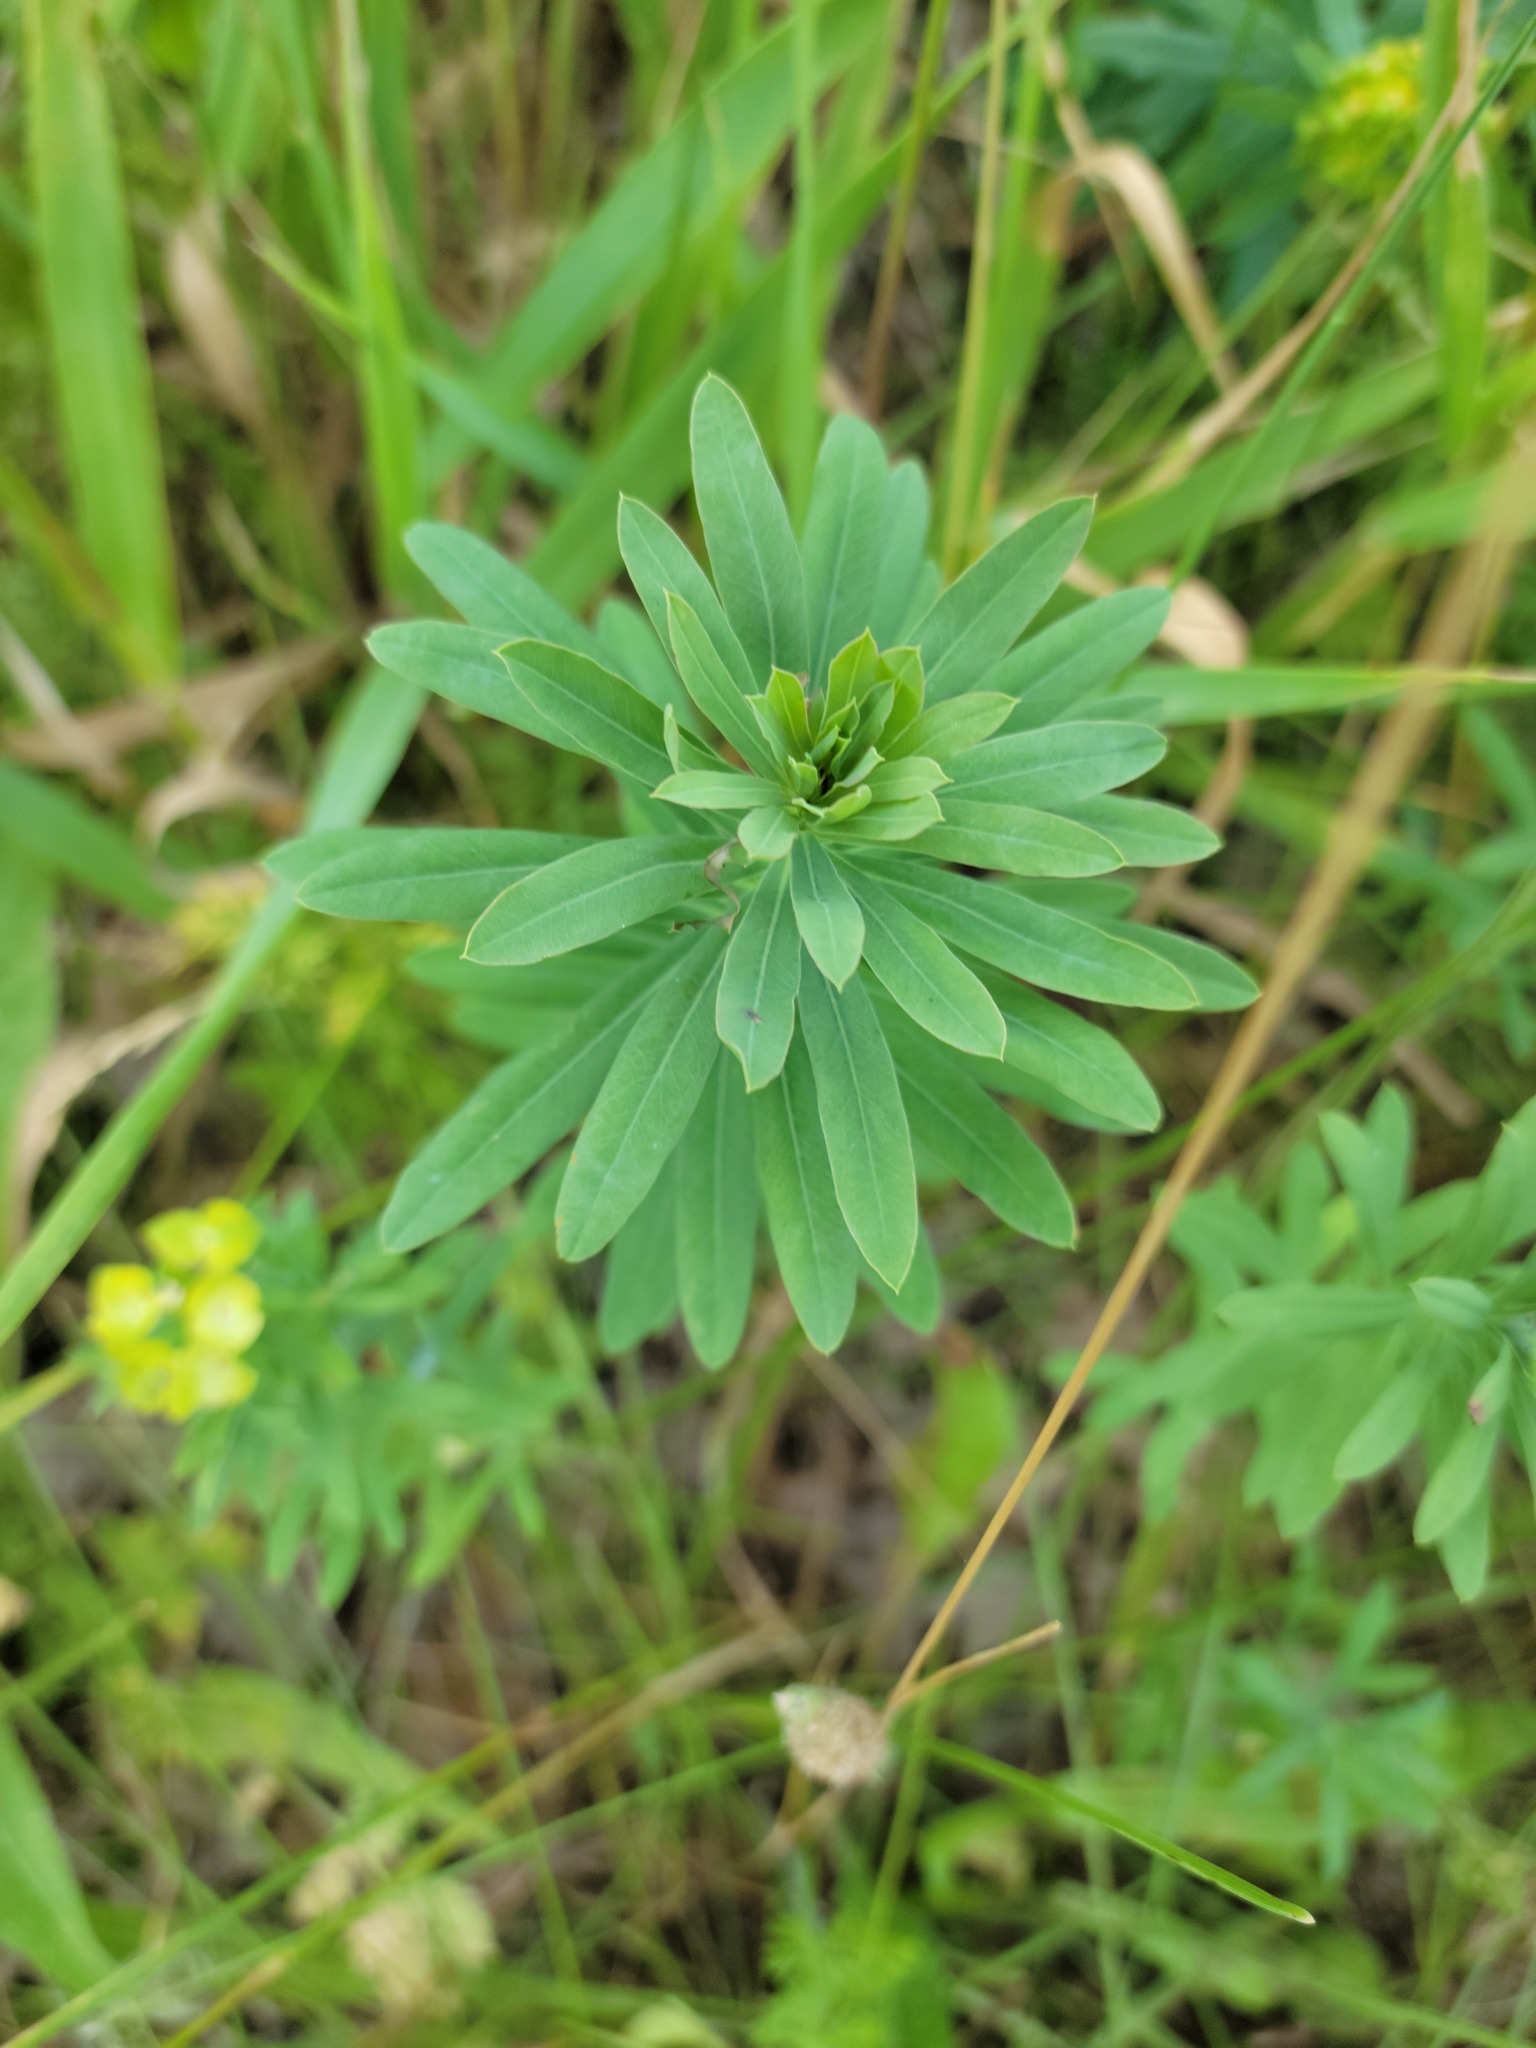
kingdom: Plantae
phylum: Tracheophyta
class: Magnoliopsida
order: Malpighiales
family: Euphorbiaceae
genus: Euphorbia
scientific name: Euphorbia virgata
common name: Leafy spurge
